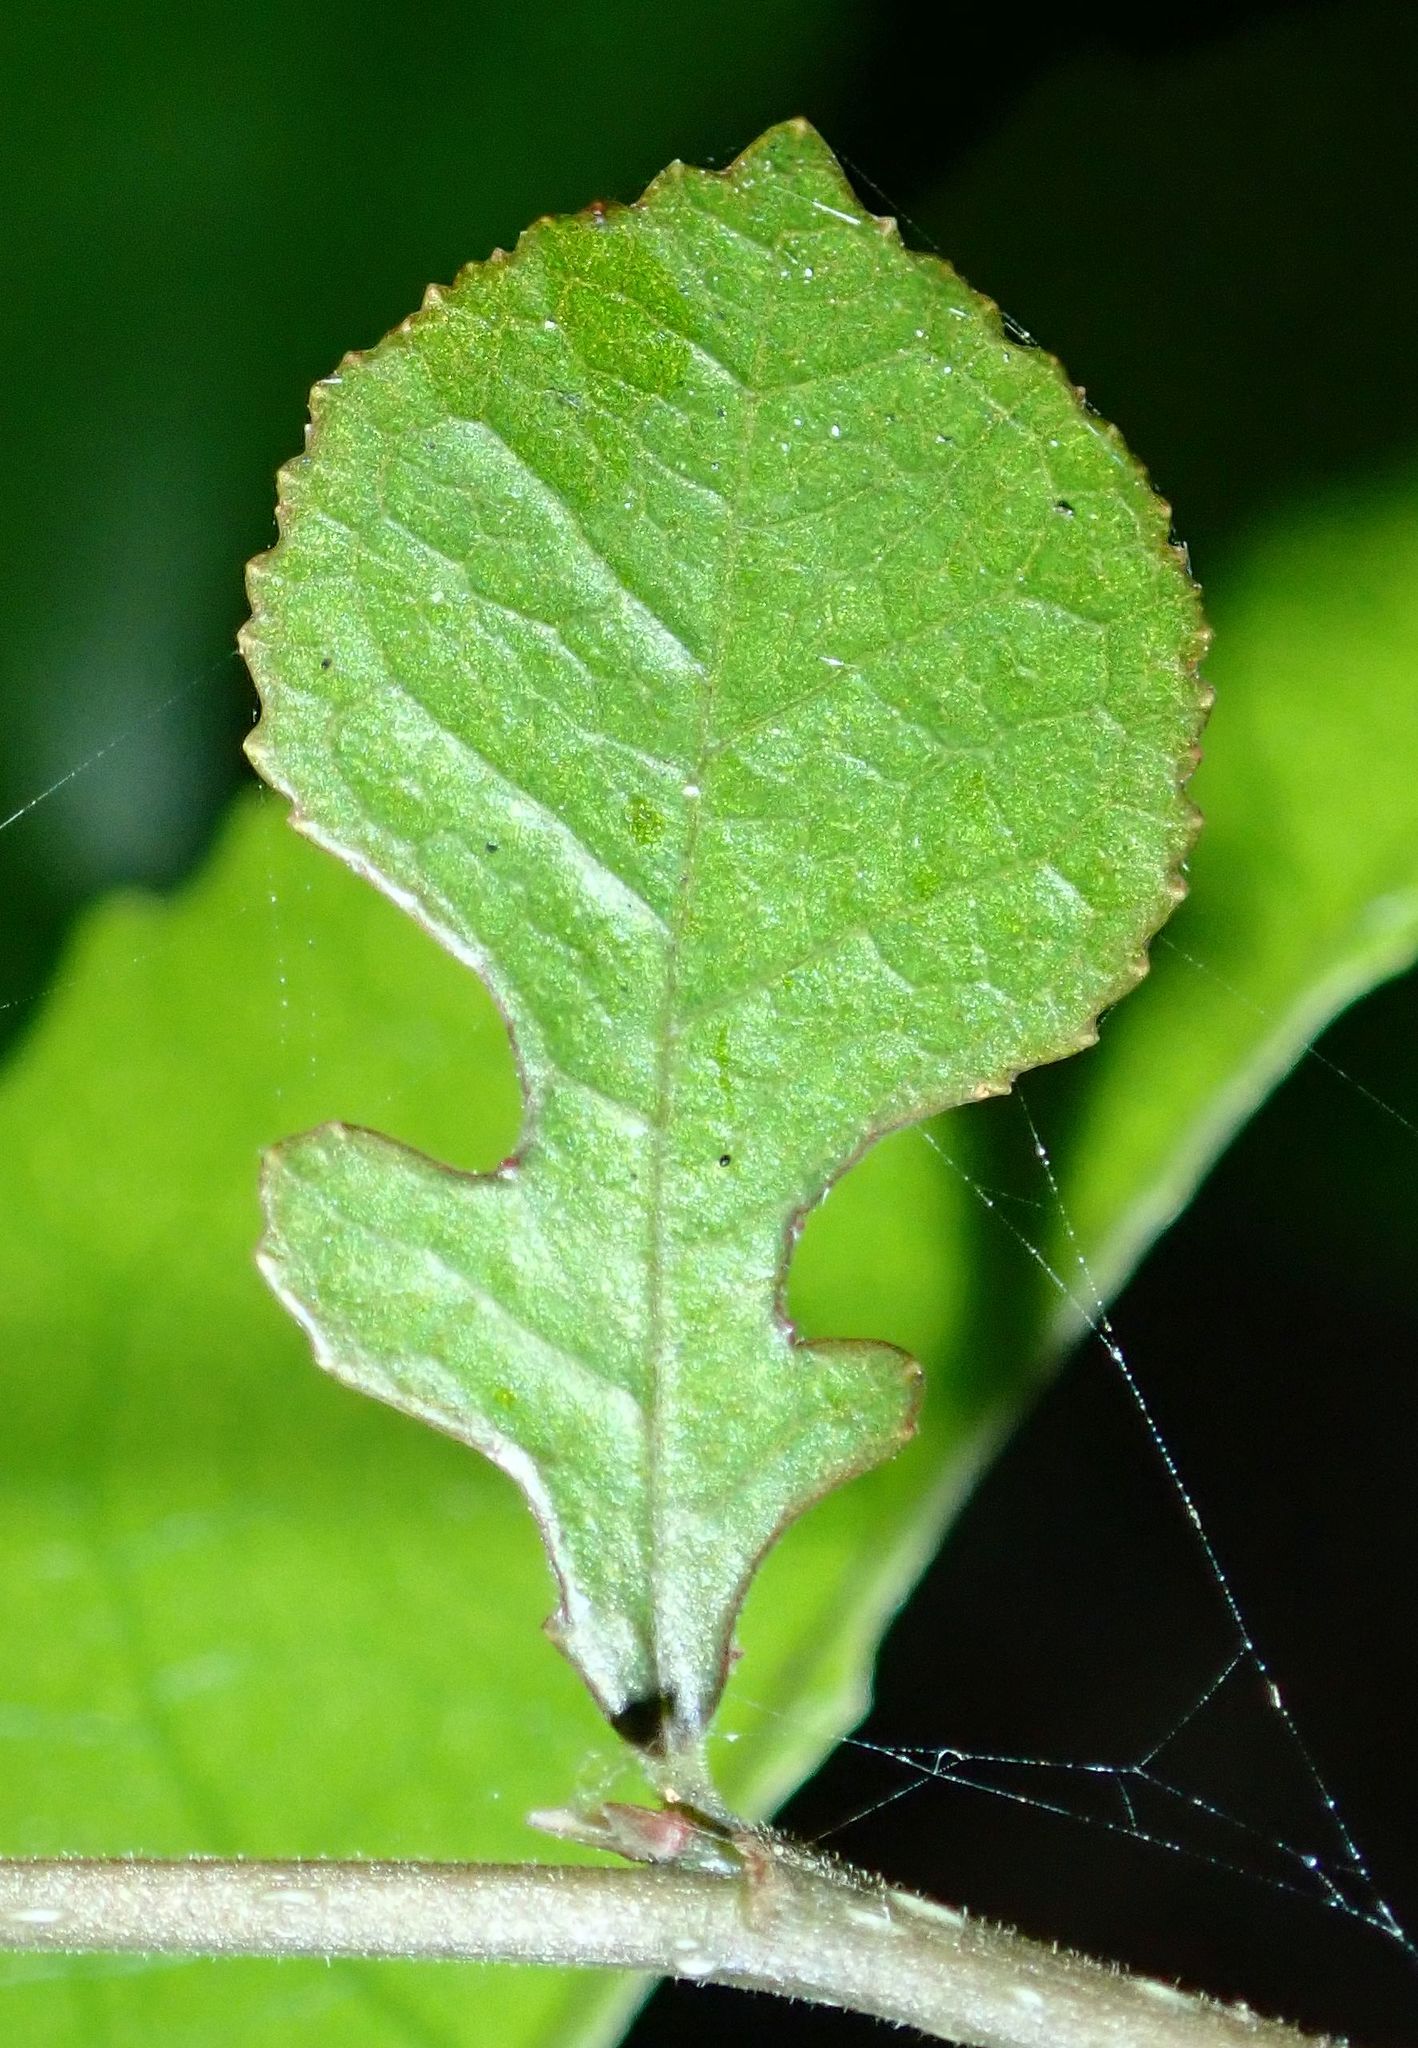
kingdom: Plantae
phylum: Tracheophyta
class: Magnoliopsida
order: Rosales
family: Moraceae
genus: Paratrophis
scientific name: Paratrophis microphylla
